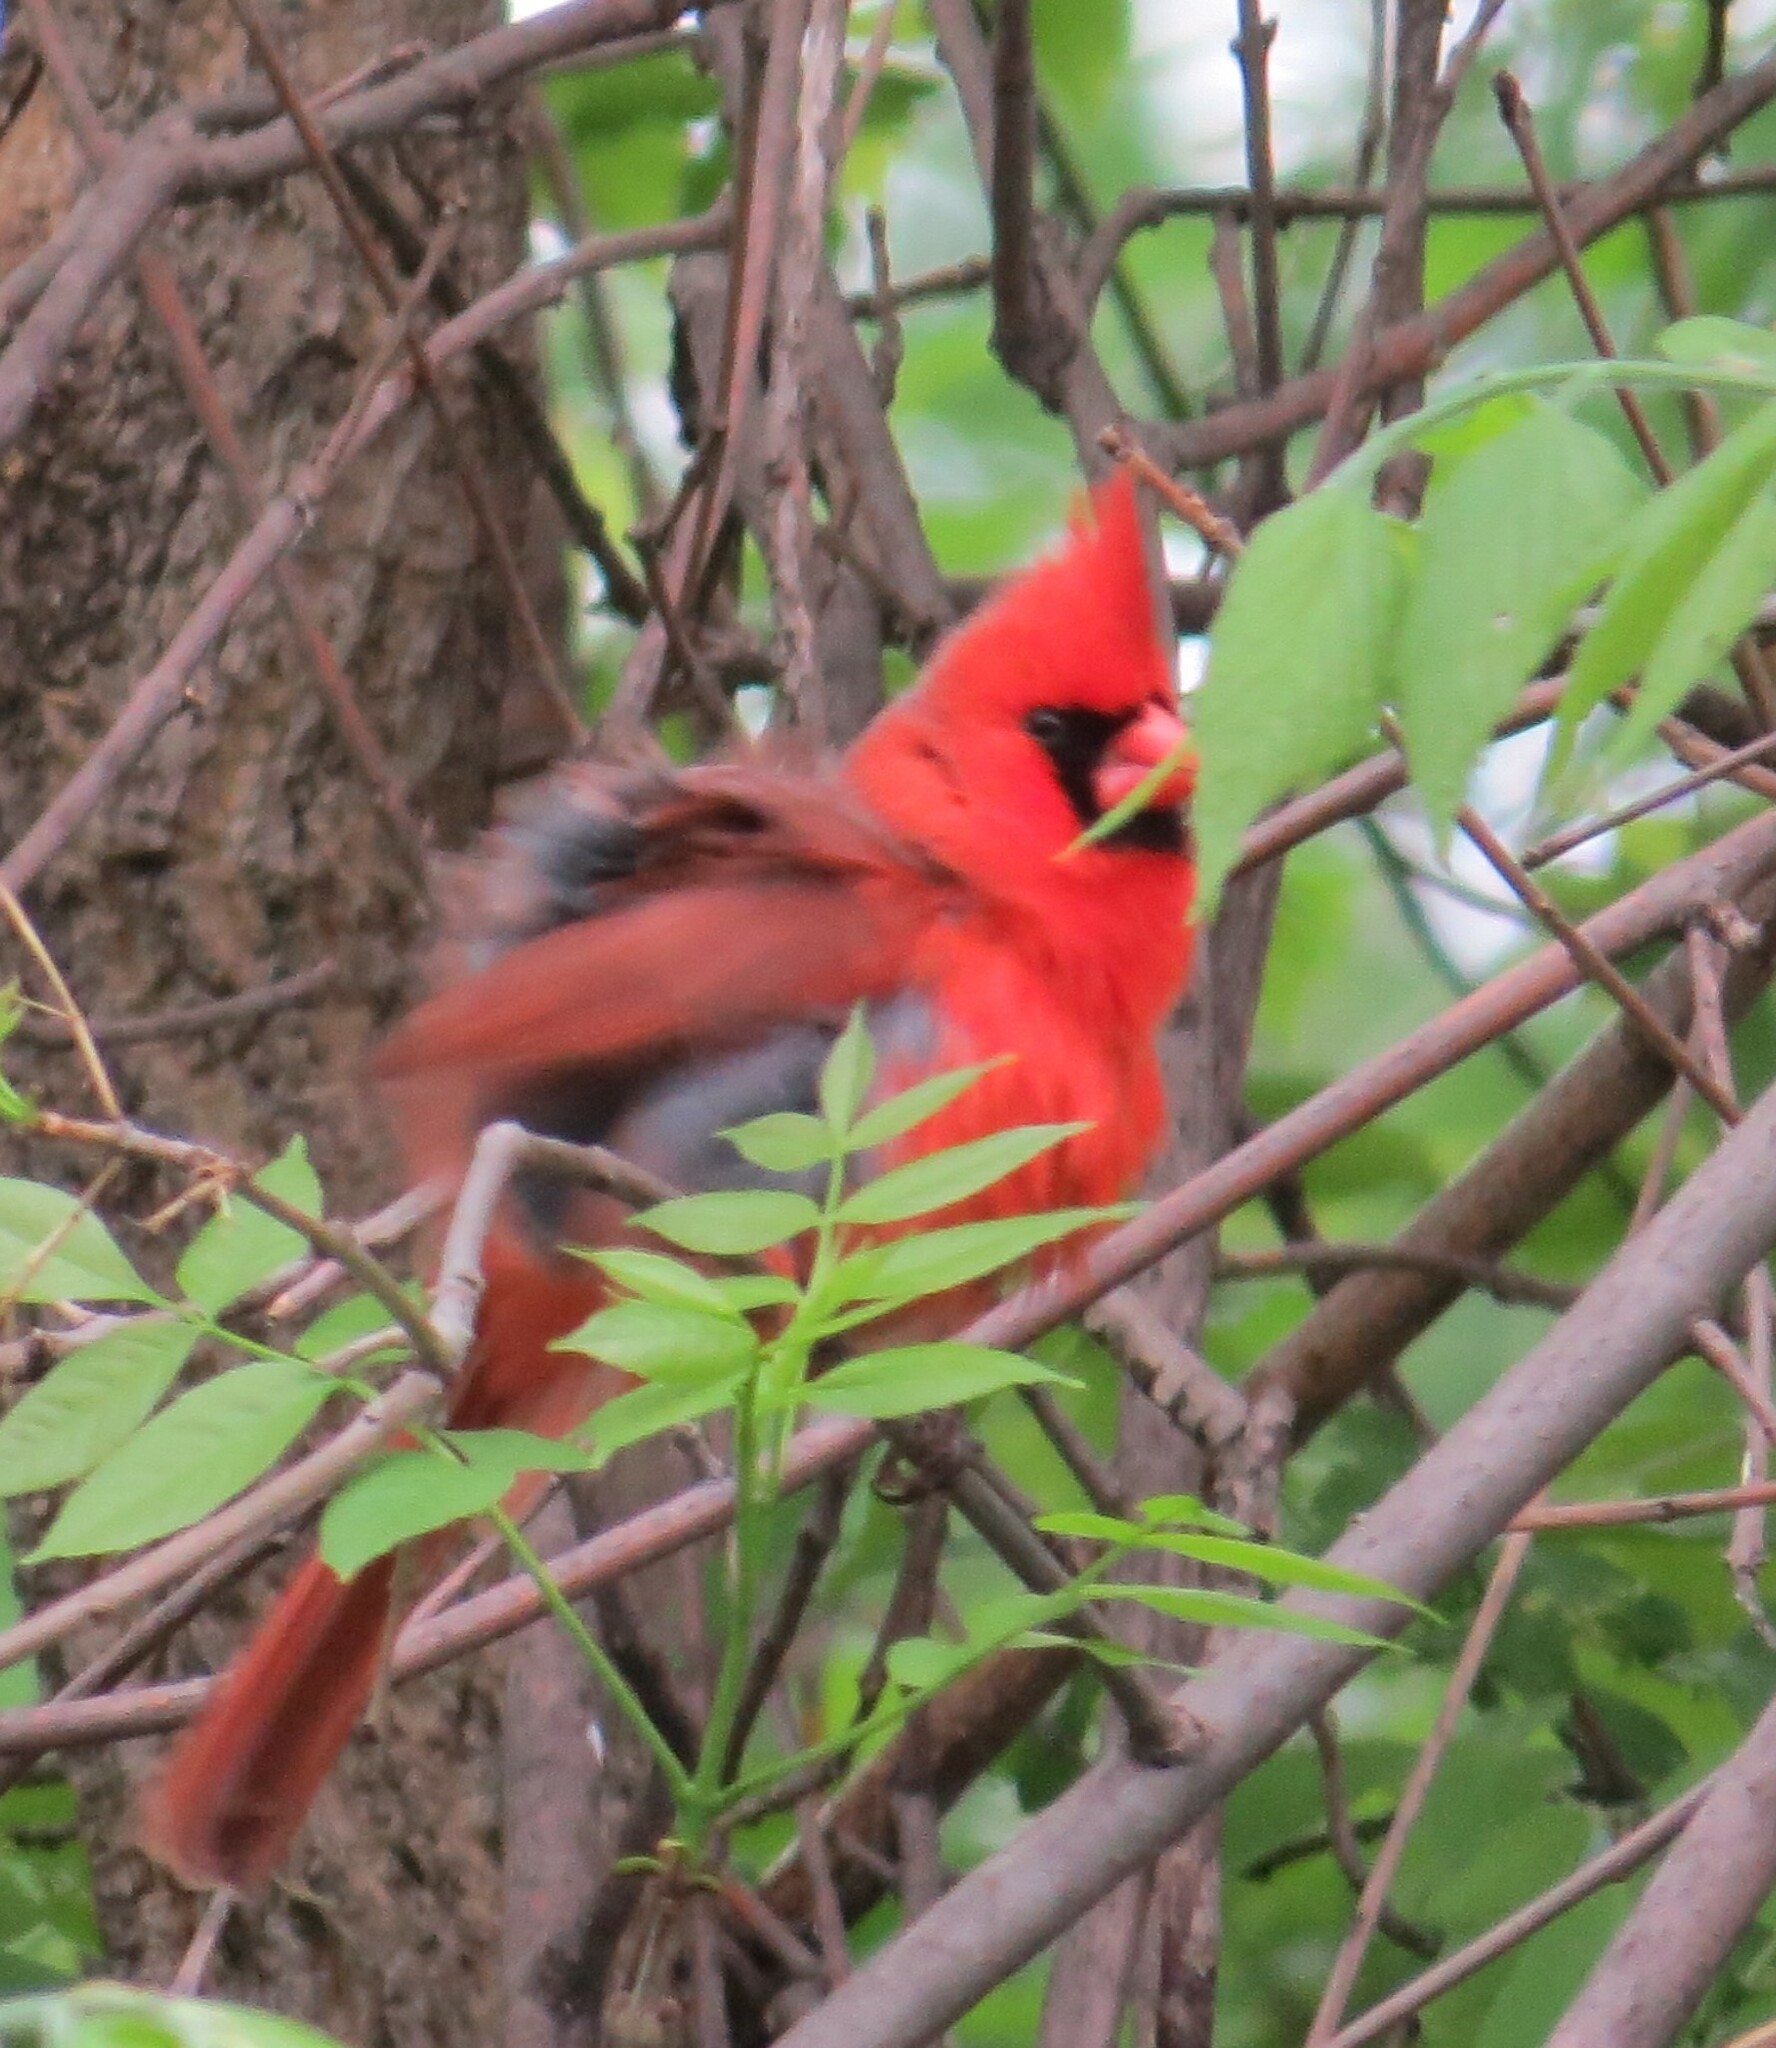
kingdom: Animalia
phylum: Chordata
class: Aves
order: Passeriformes
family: Cardinalidae
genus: Cardinalis
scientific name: Cardinalis cardinalis
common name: Northern cardinal
